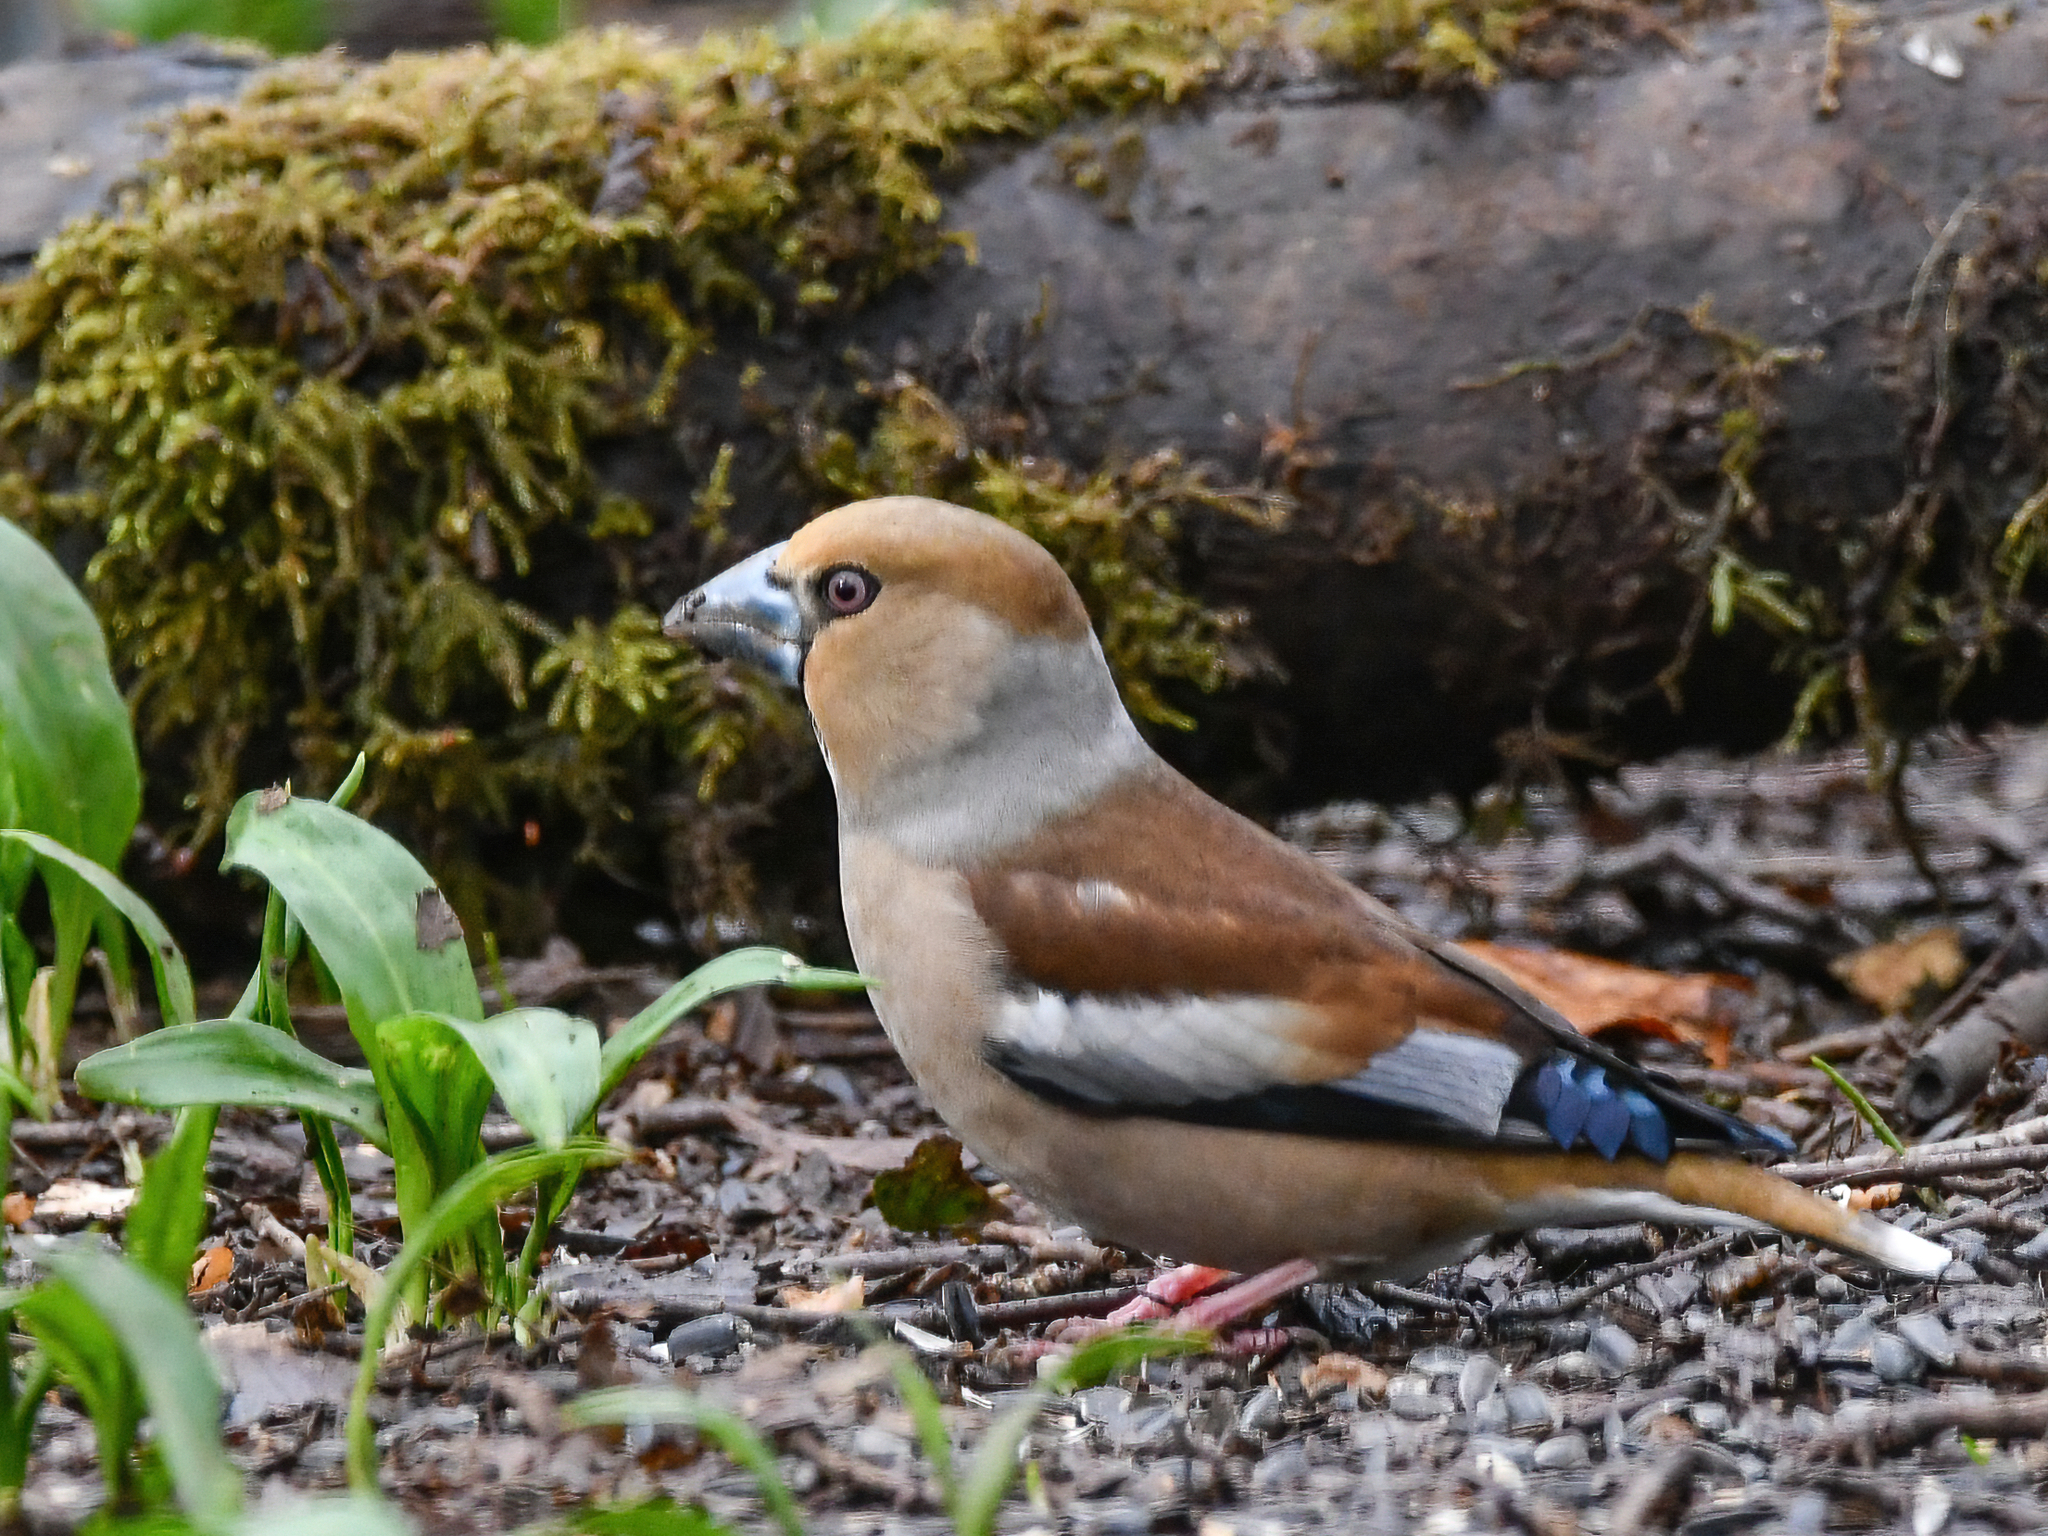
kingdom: Animalia
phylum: Chordata
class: Aves
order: Passeriformes
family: Fringillidae
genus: Coccothraustes
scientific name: Coccothraustes coccothraustes
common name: Hawfinch
